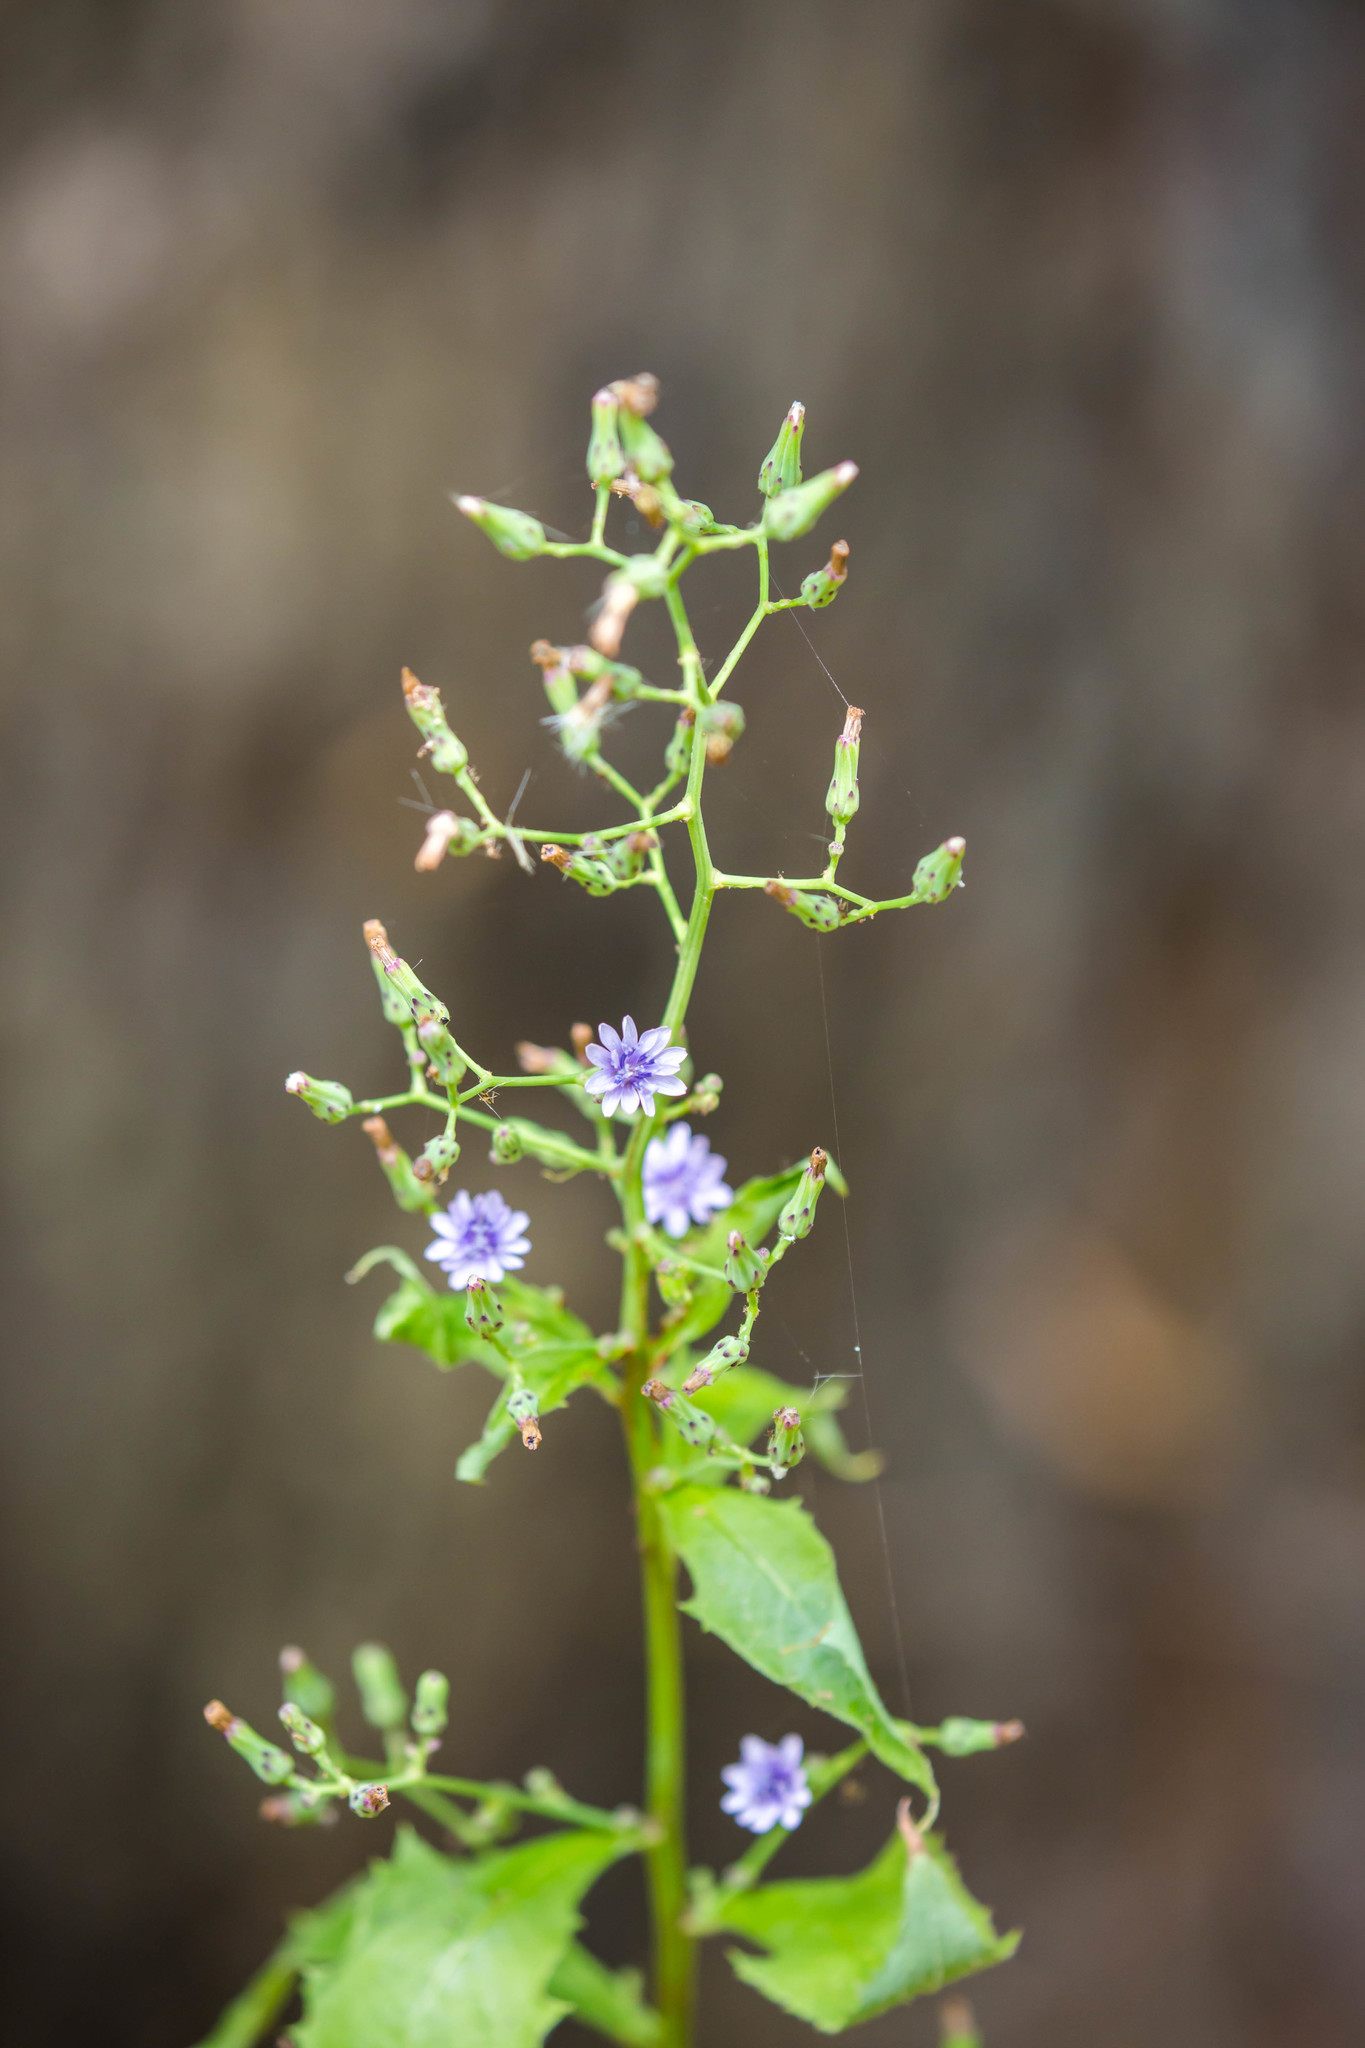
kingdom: Plantae
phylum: Tracheophyta
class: Magnoliopsida
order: Asterales
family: Asteraceae
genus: Lactuca
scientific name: Lactuca floridana
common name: Woodland lettuce
